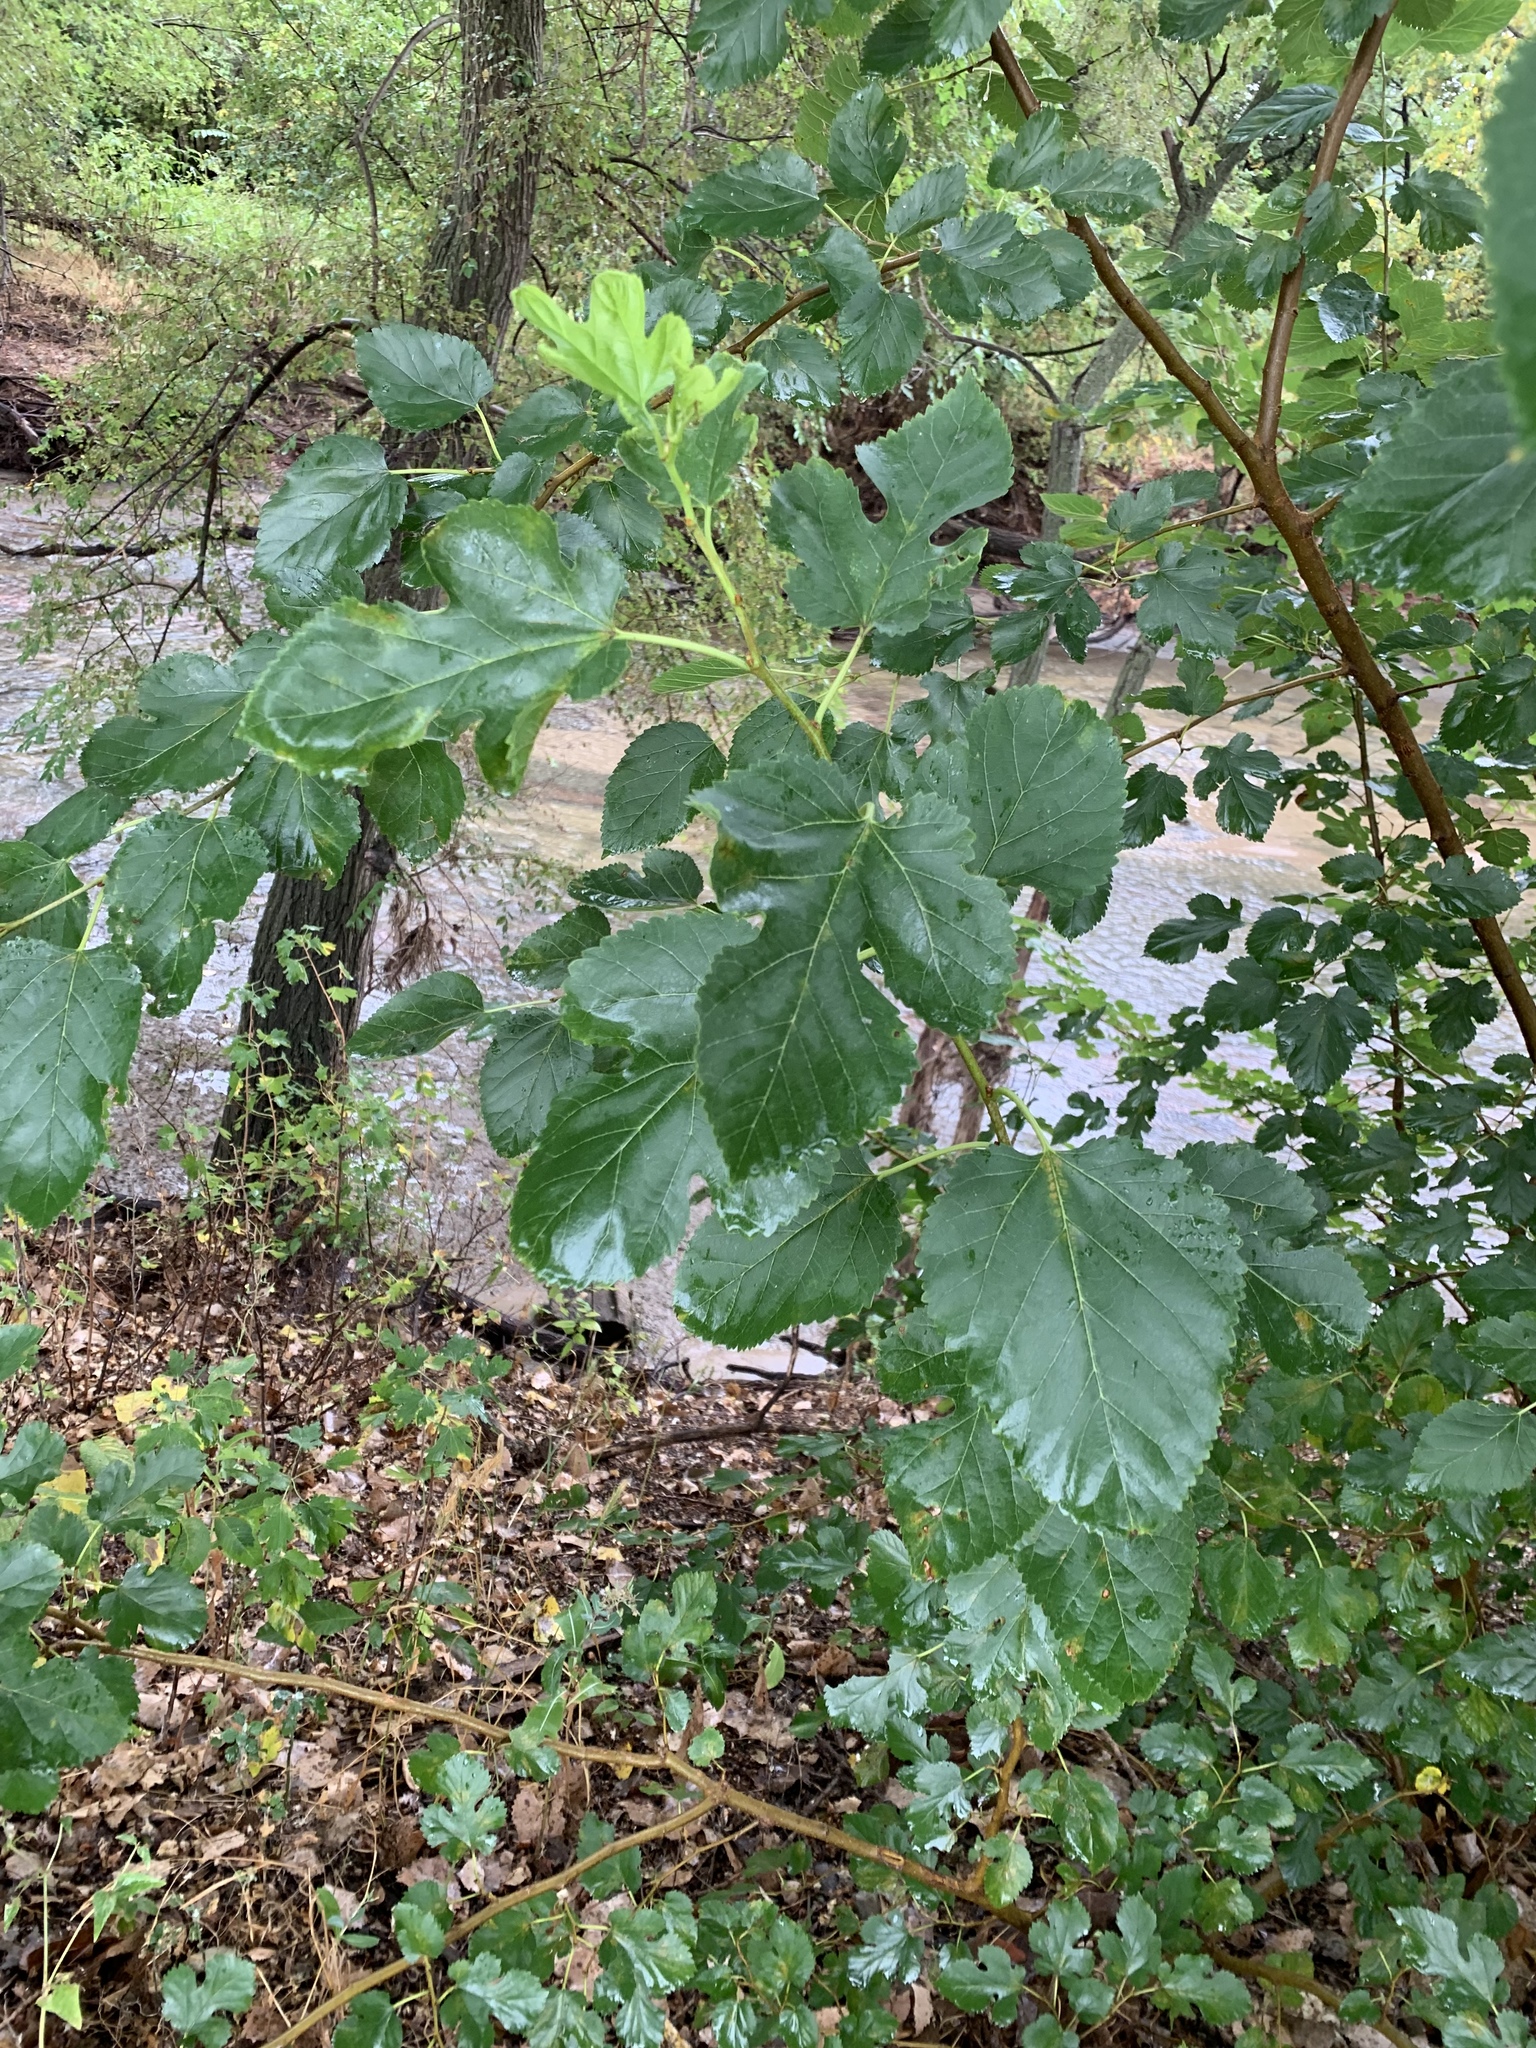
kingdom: Plantae
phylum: Tracheophyta
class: Magnoliopsida
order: Rosales
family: Moraceae
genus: Morus
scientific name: Morus alba
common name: White mulberry
